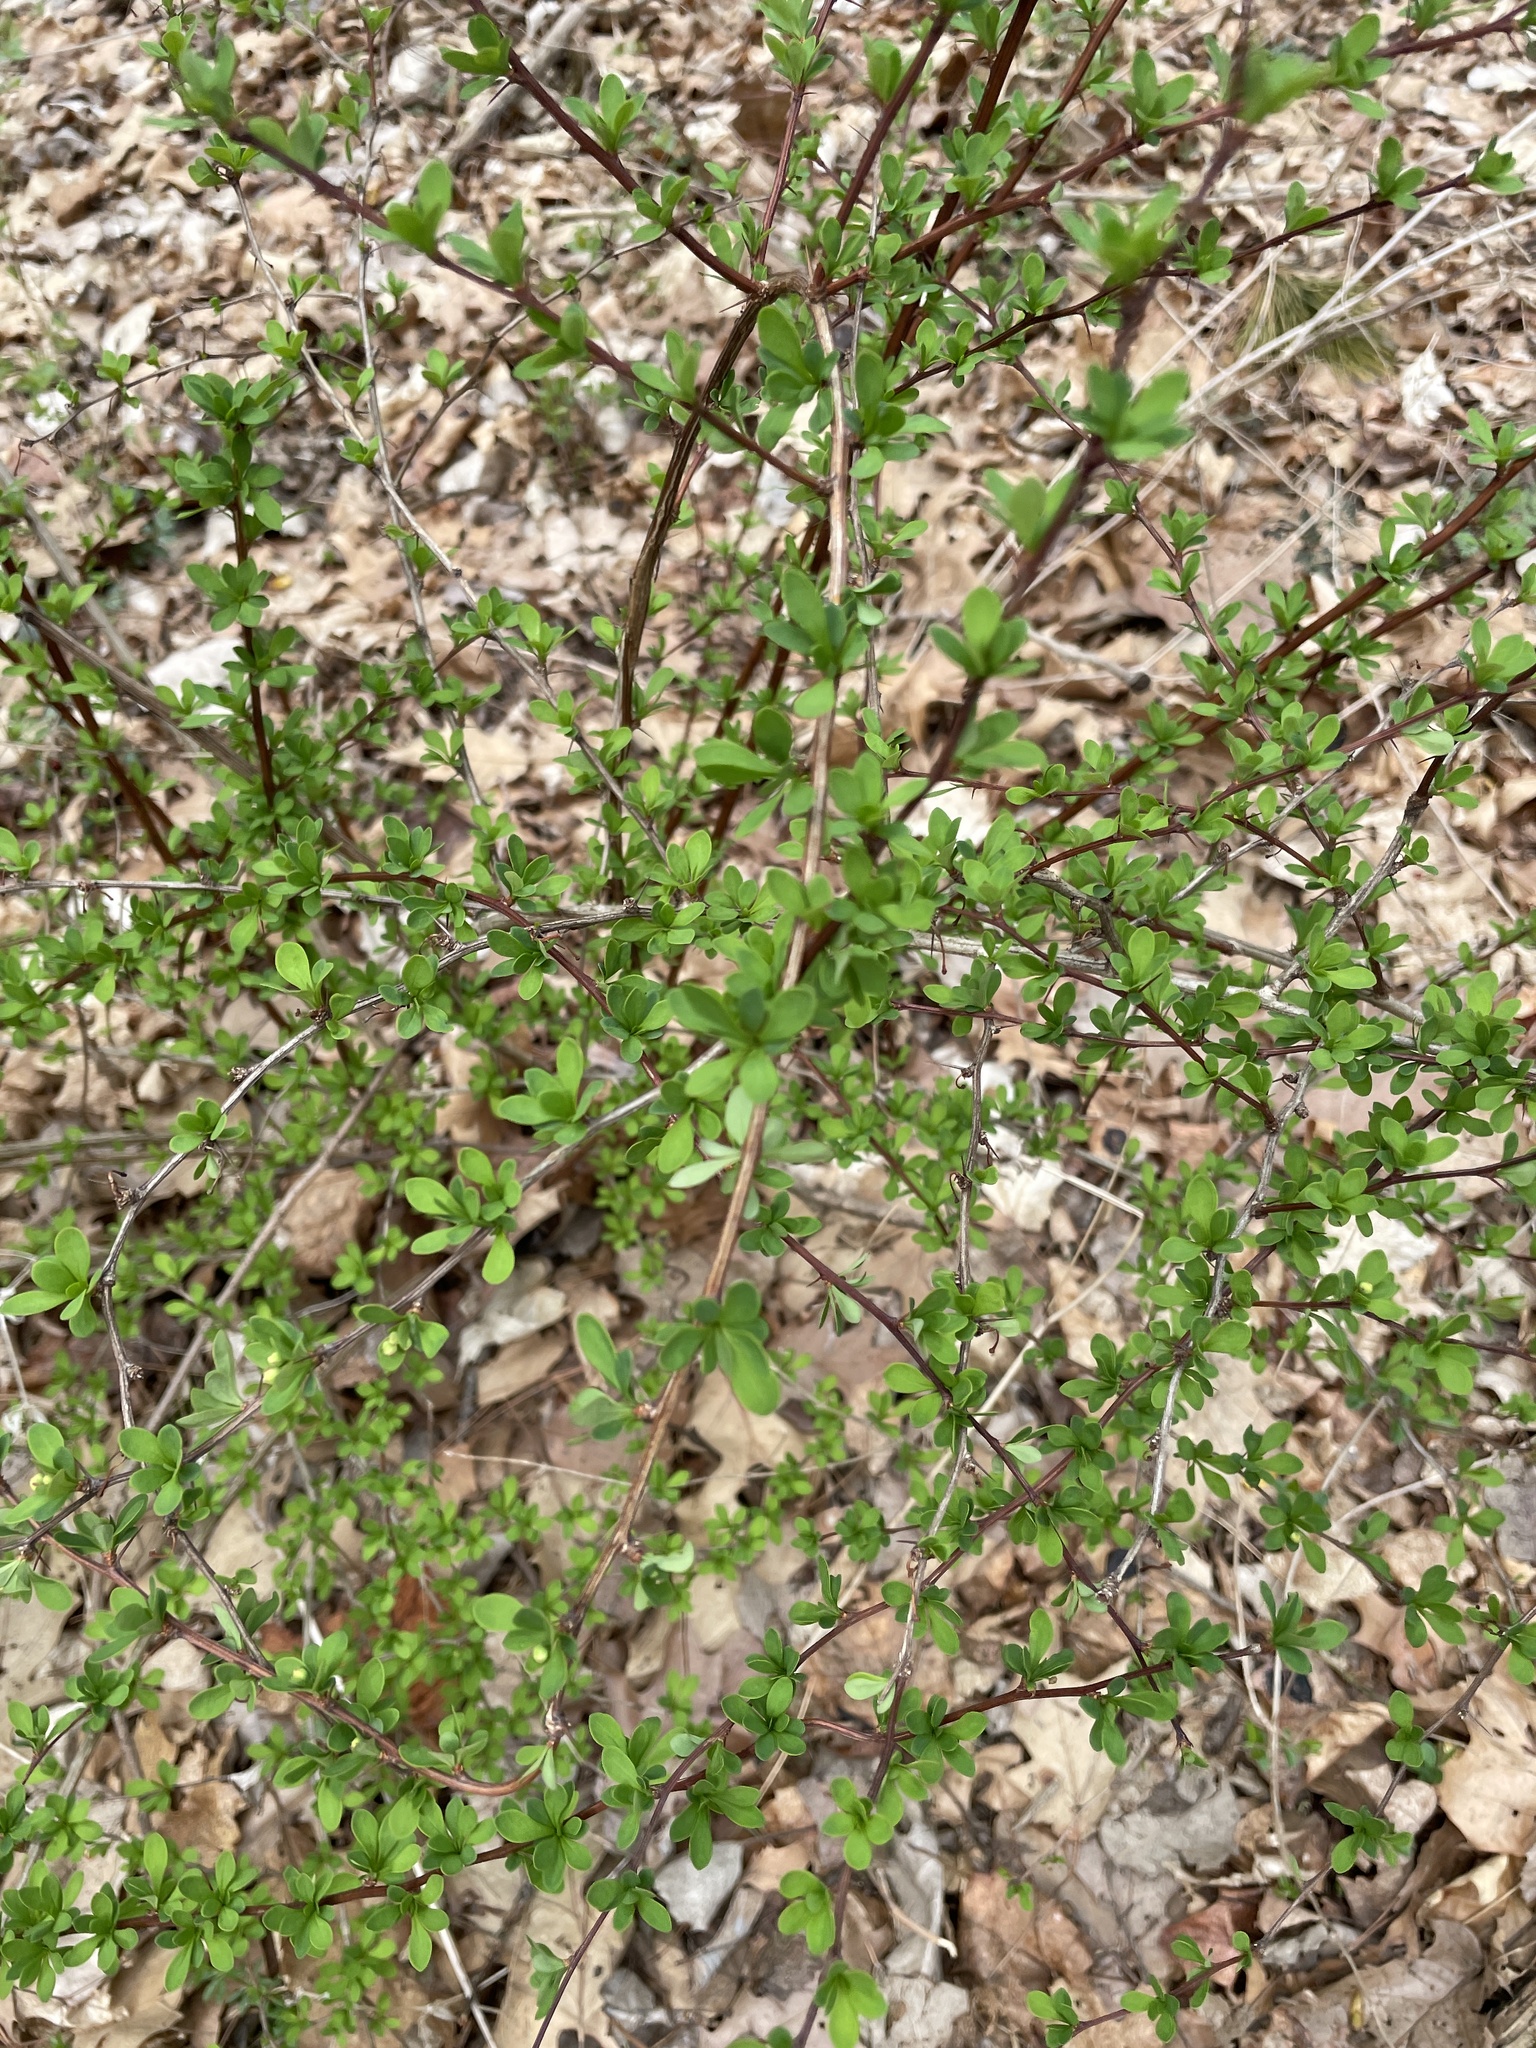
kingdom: Plantae
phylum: Tracheophyta
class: Magnoliopsida
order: Ranunculales
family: Berberidaceae
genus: Berberis
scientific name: Berberis thunbergii
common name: Japanese barberry
